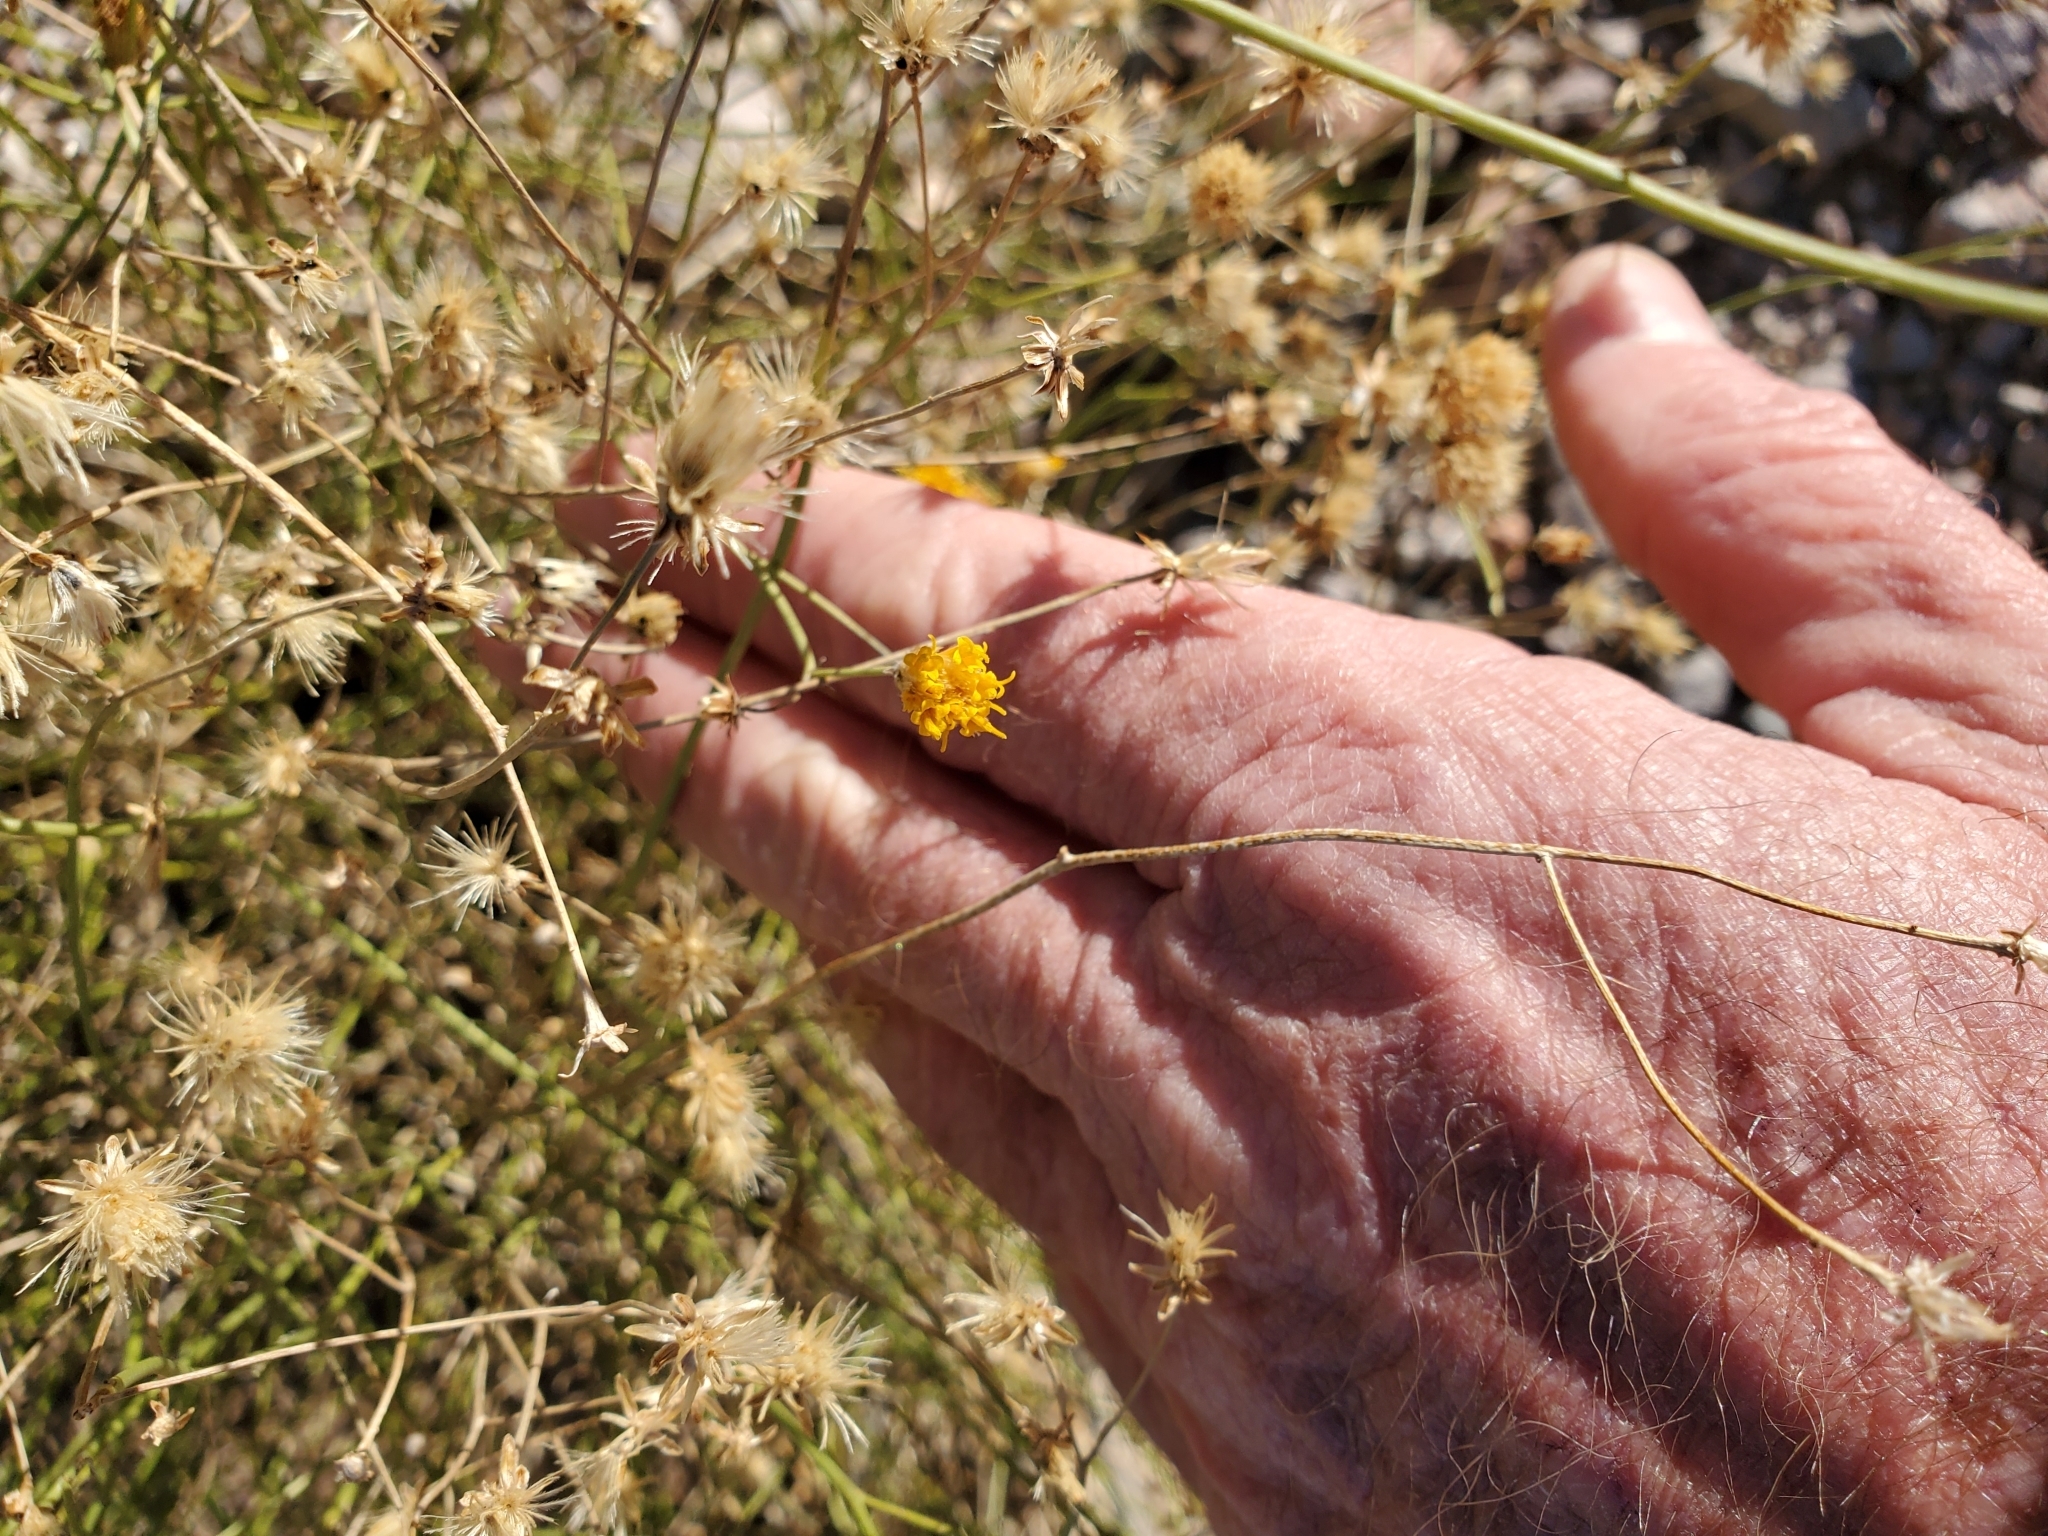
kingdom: Plantae
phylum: Tracheophyta
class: Magnoliopsida
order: Asterales
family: Asteraceae
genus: Bebbia
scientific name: Bebbia juncea
